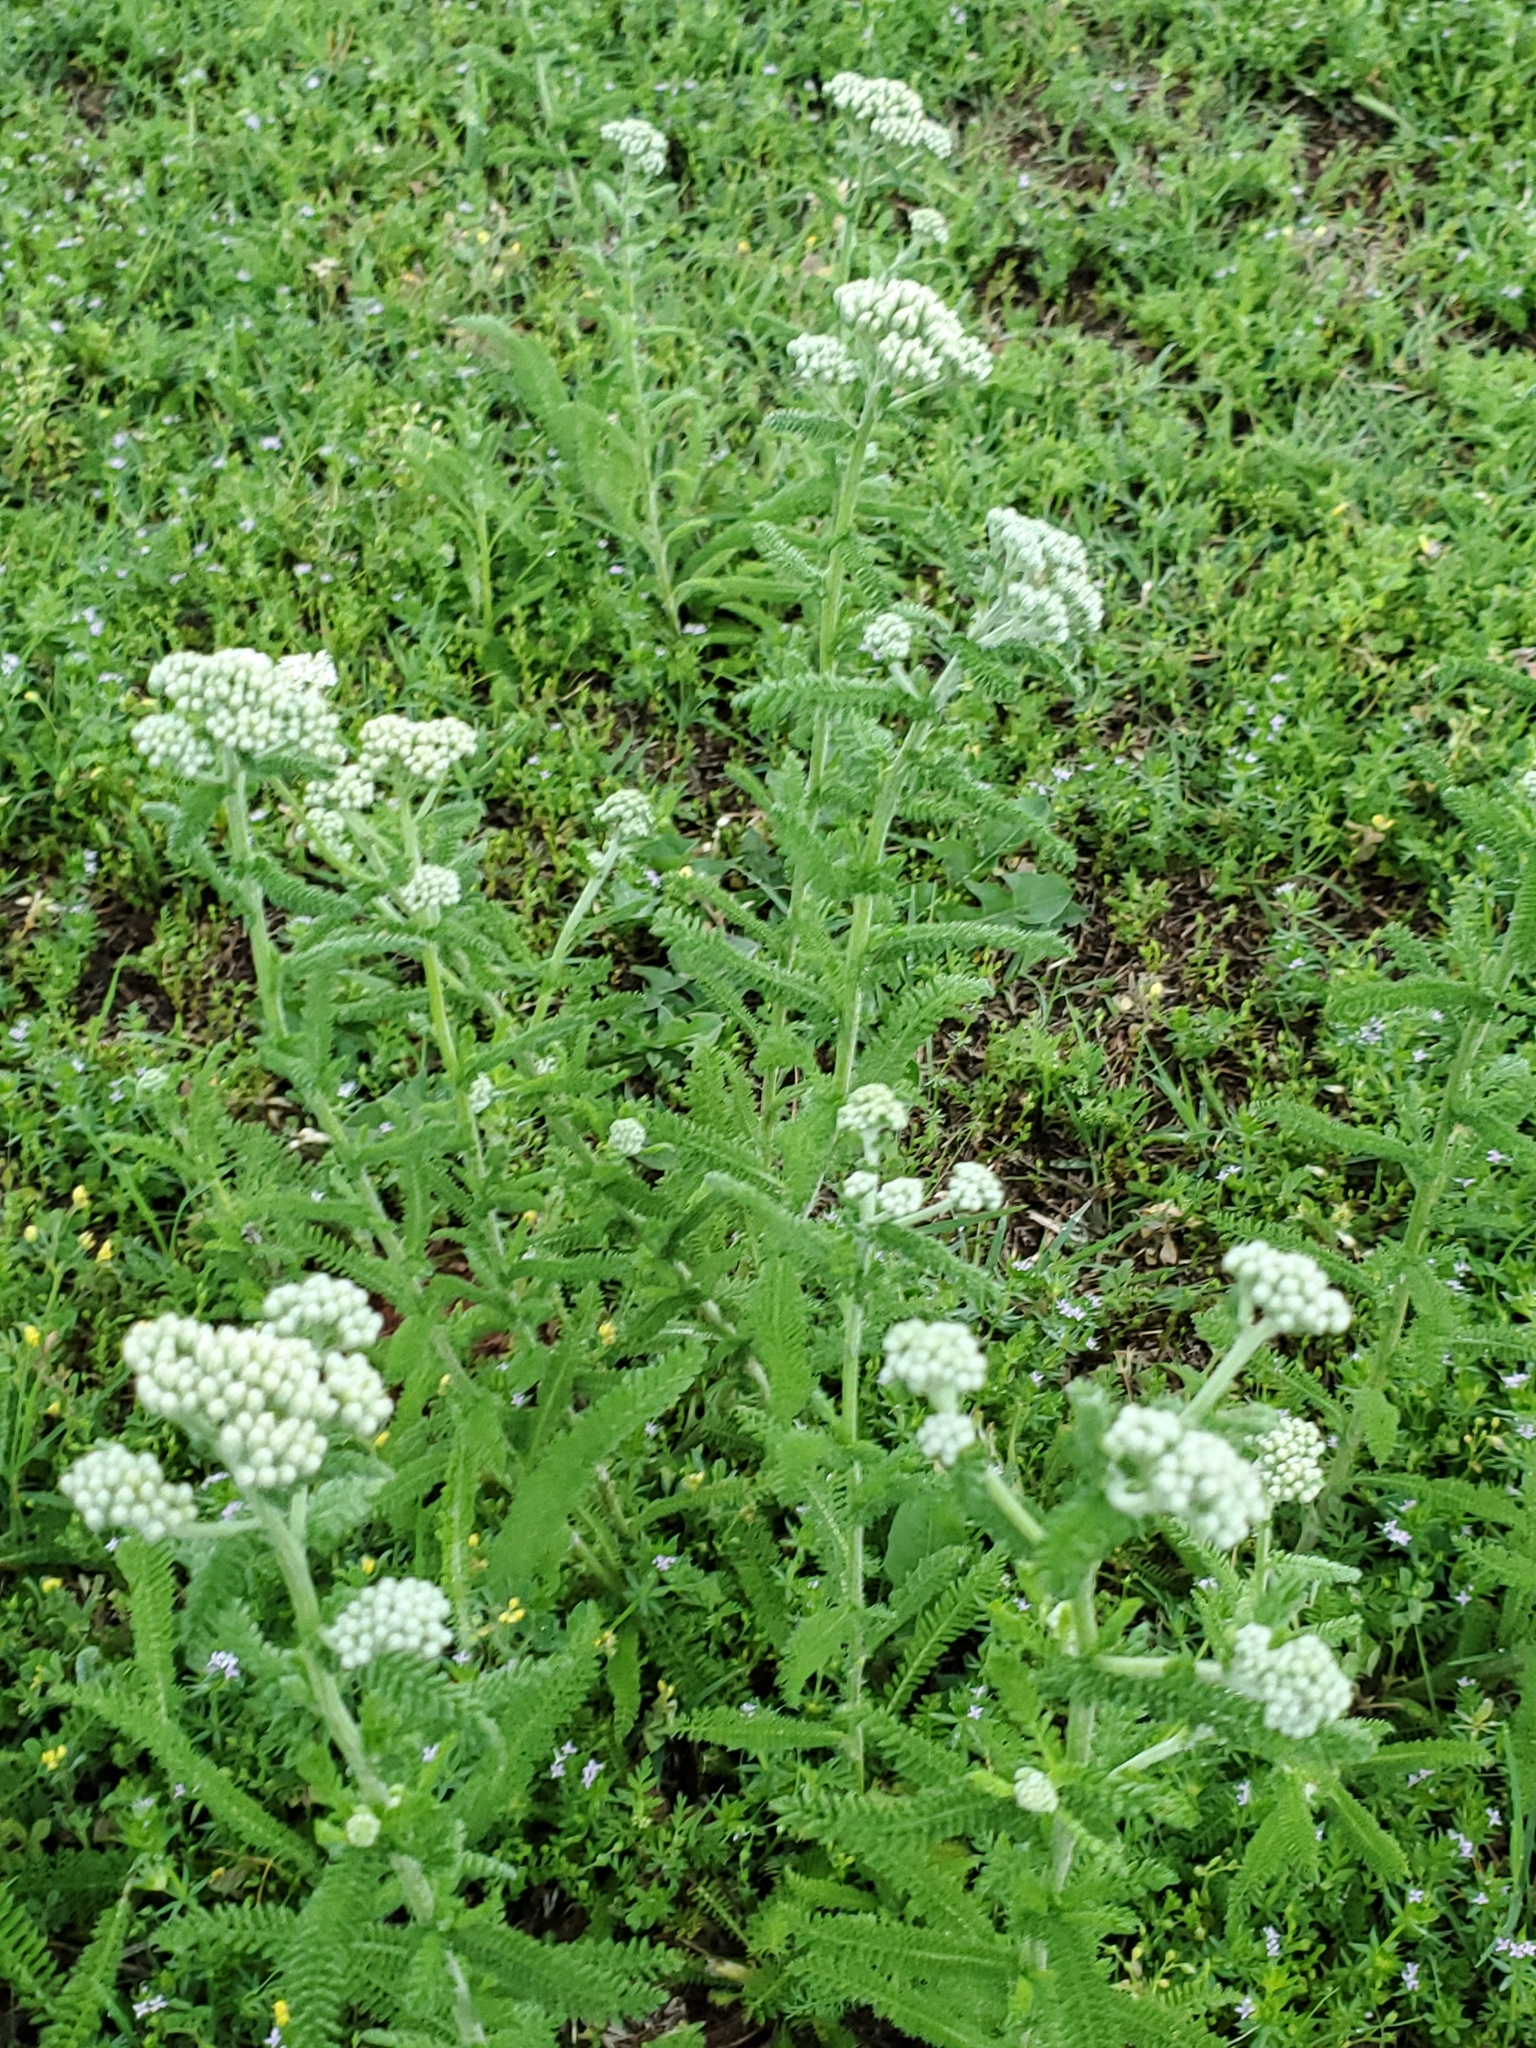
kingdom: Plantae
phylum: Tracheophyta
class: Magnoliopsida
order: Asterales
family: Asteraceae
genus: Achillea
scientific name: Achillea millefolium
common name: Yarrow
